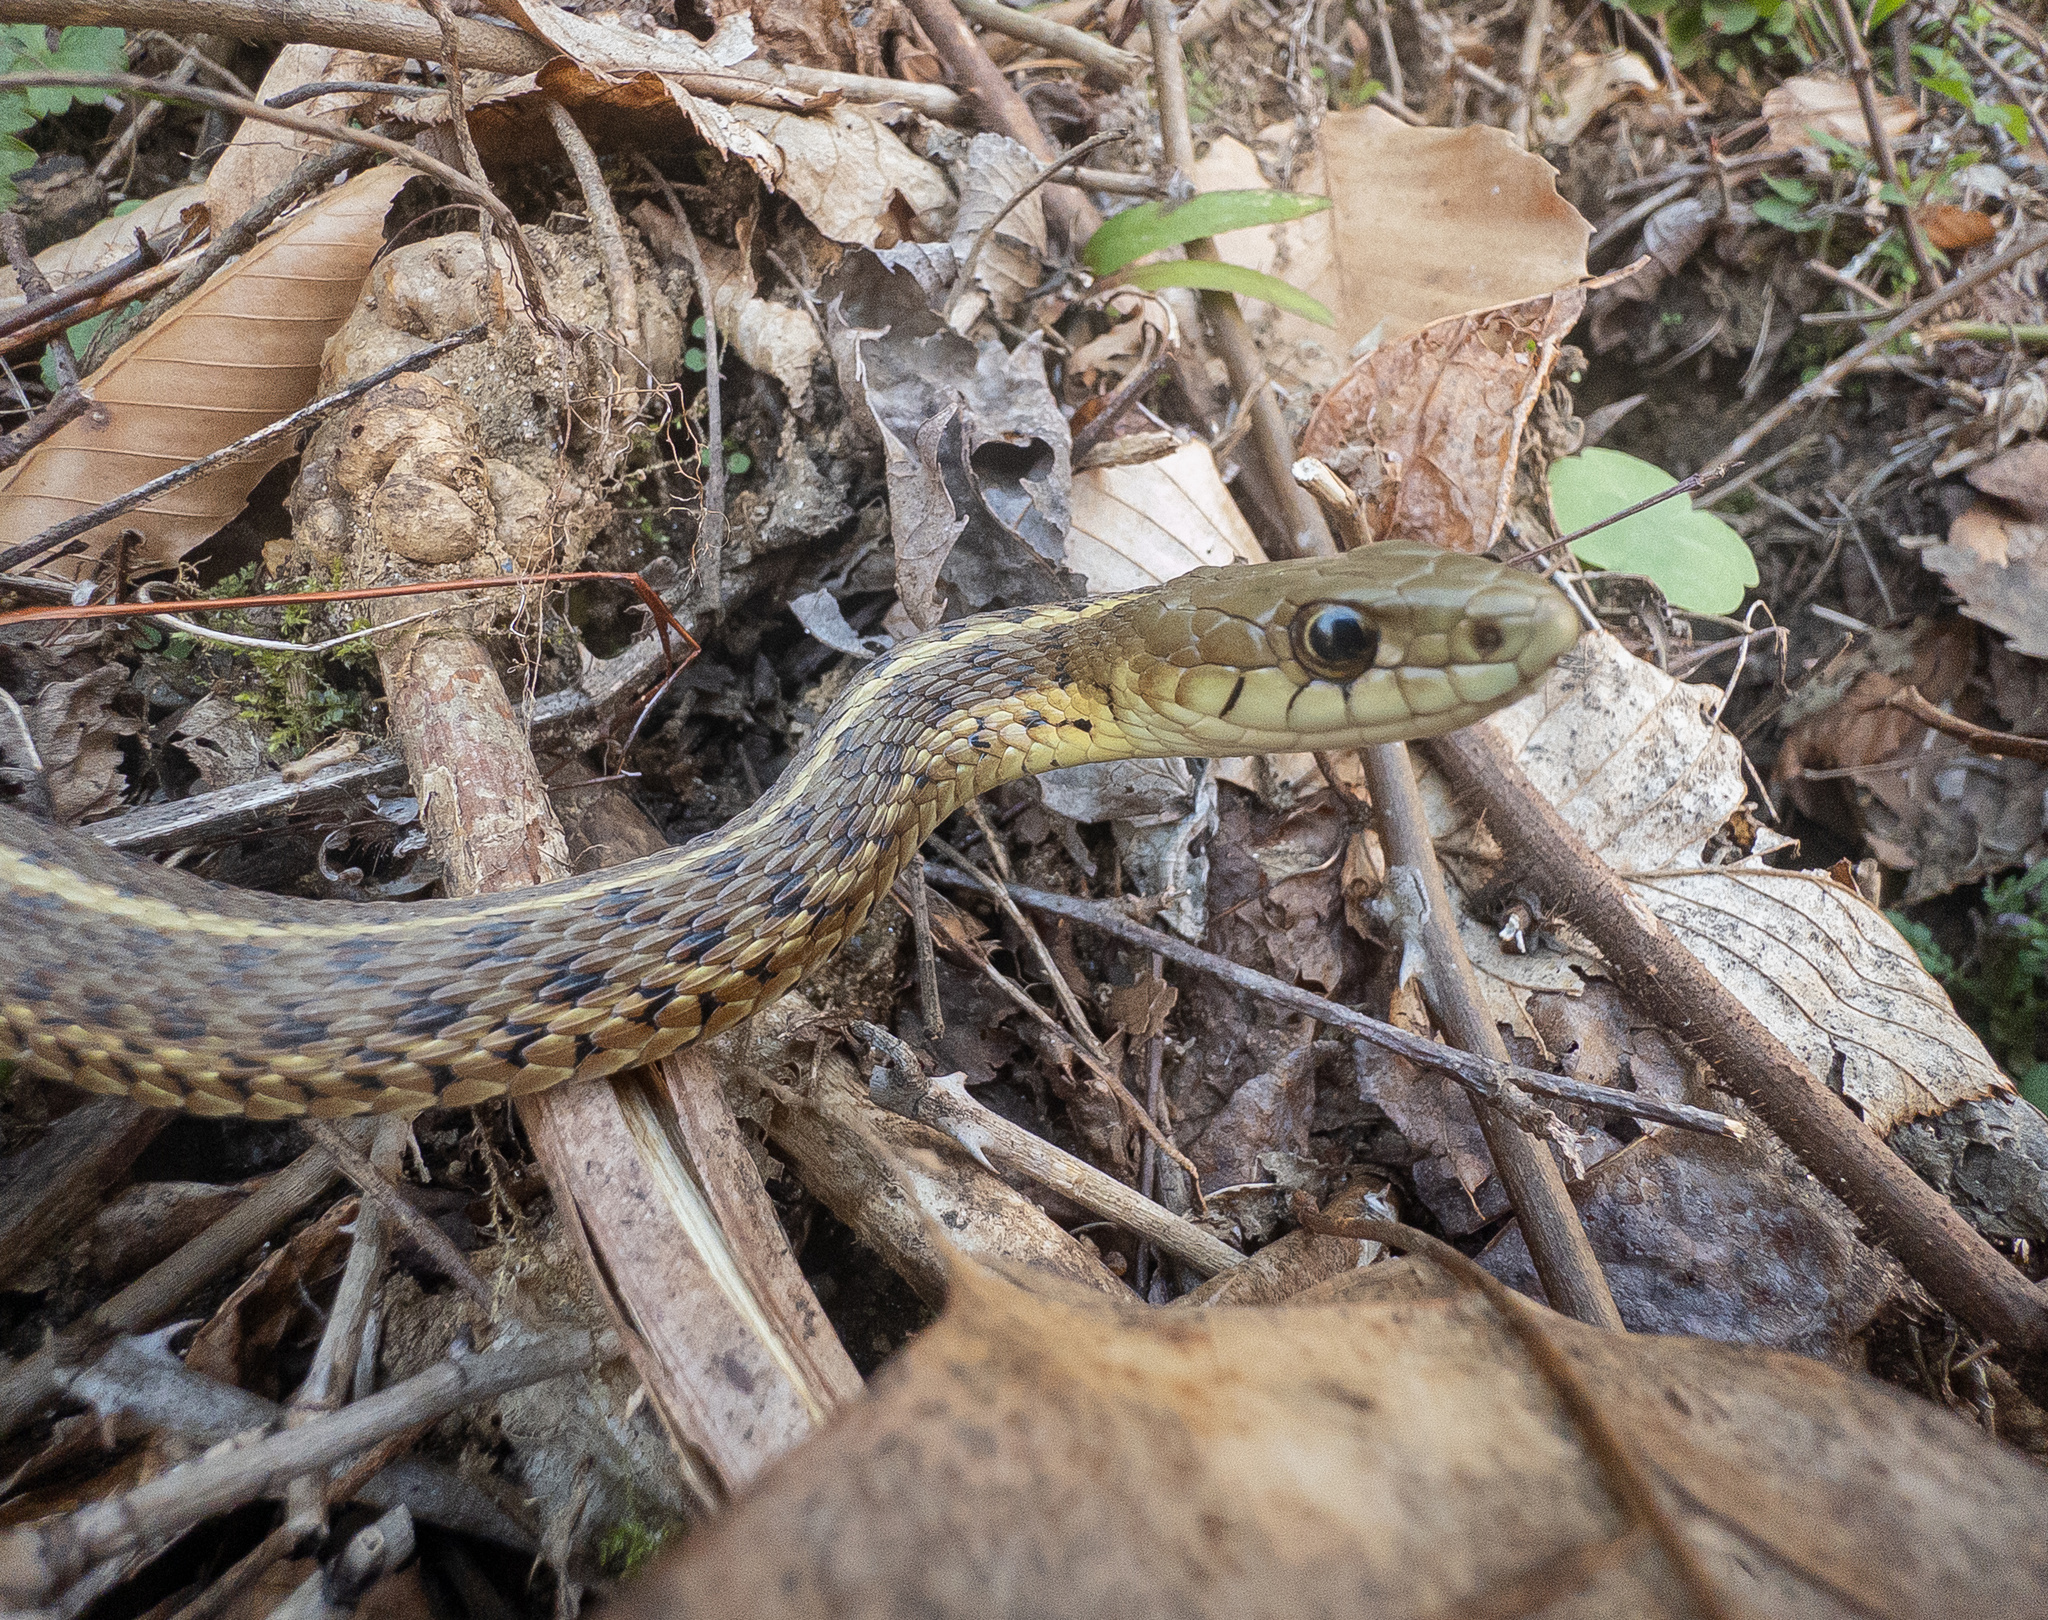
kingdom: Animalia
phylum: Chordata
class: Squamata
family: Colubridae
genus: Thamnophis
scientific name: Thamnophis sirtalis
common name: Common garter snake
